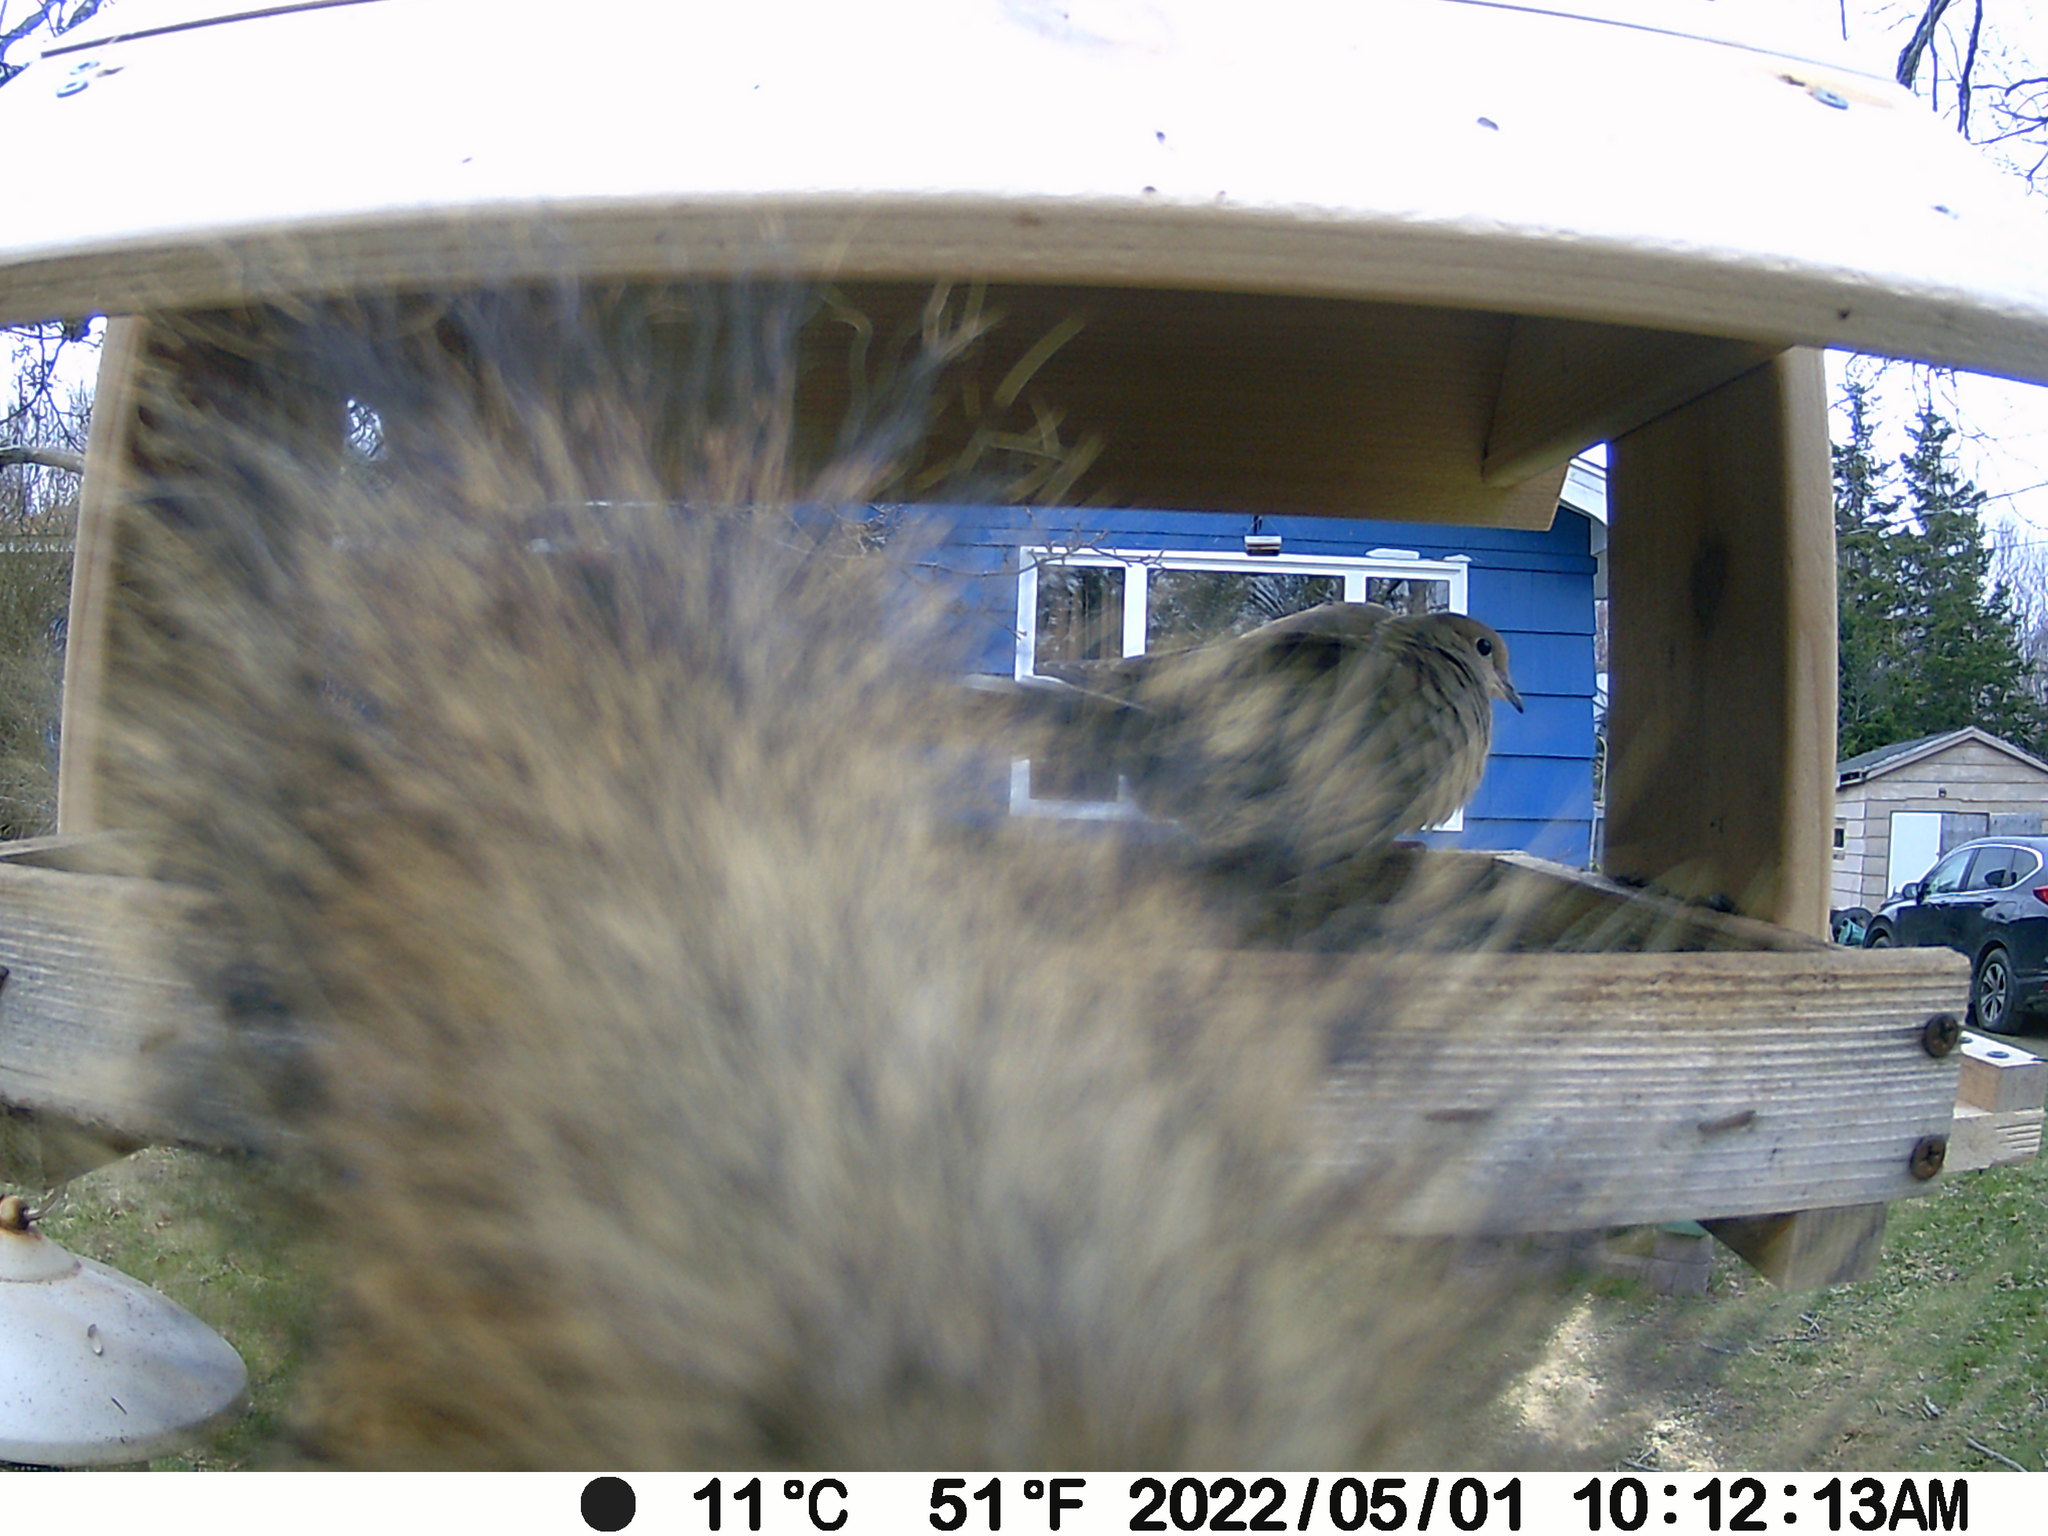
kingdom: Animalia
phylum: Chordata
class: Aves
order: Columbiformes
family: Columbidae
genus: Zenaida
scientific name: Zenaida macroura
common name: Mourning dove
